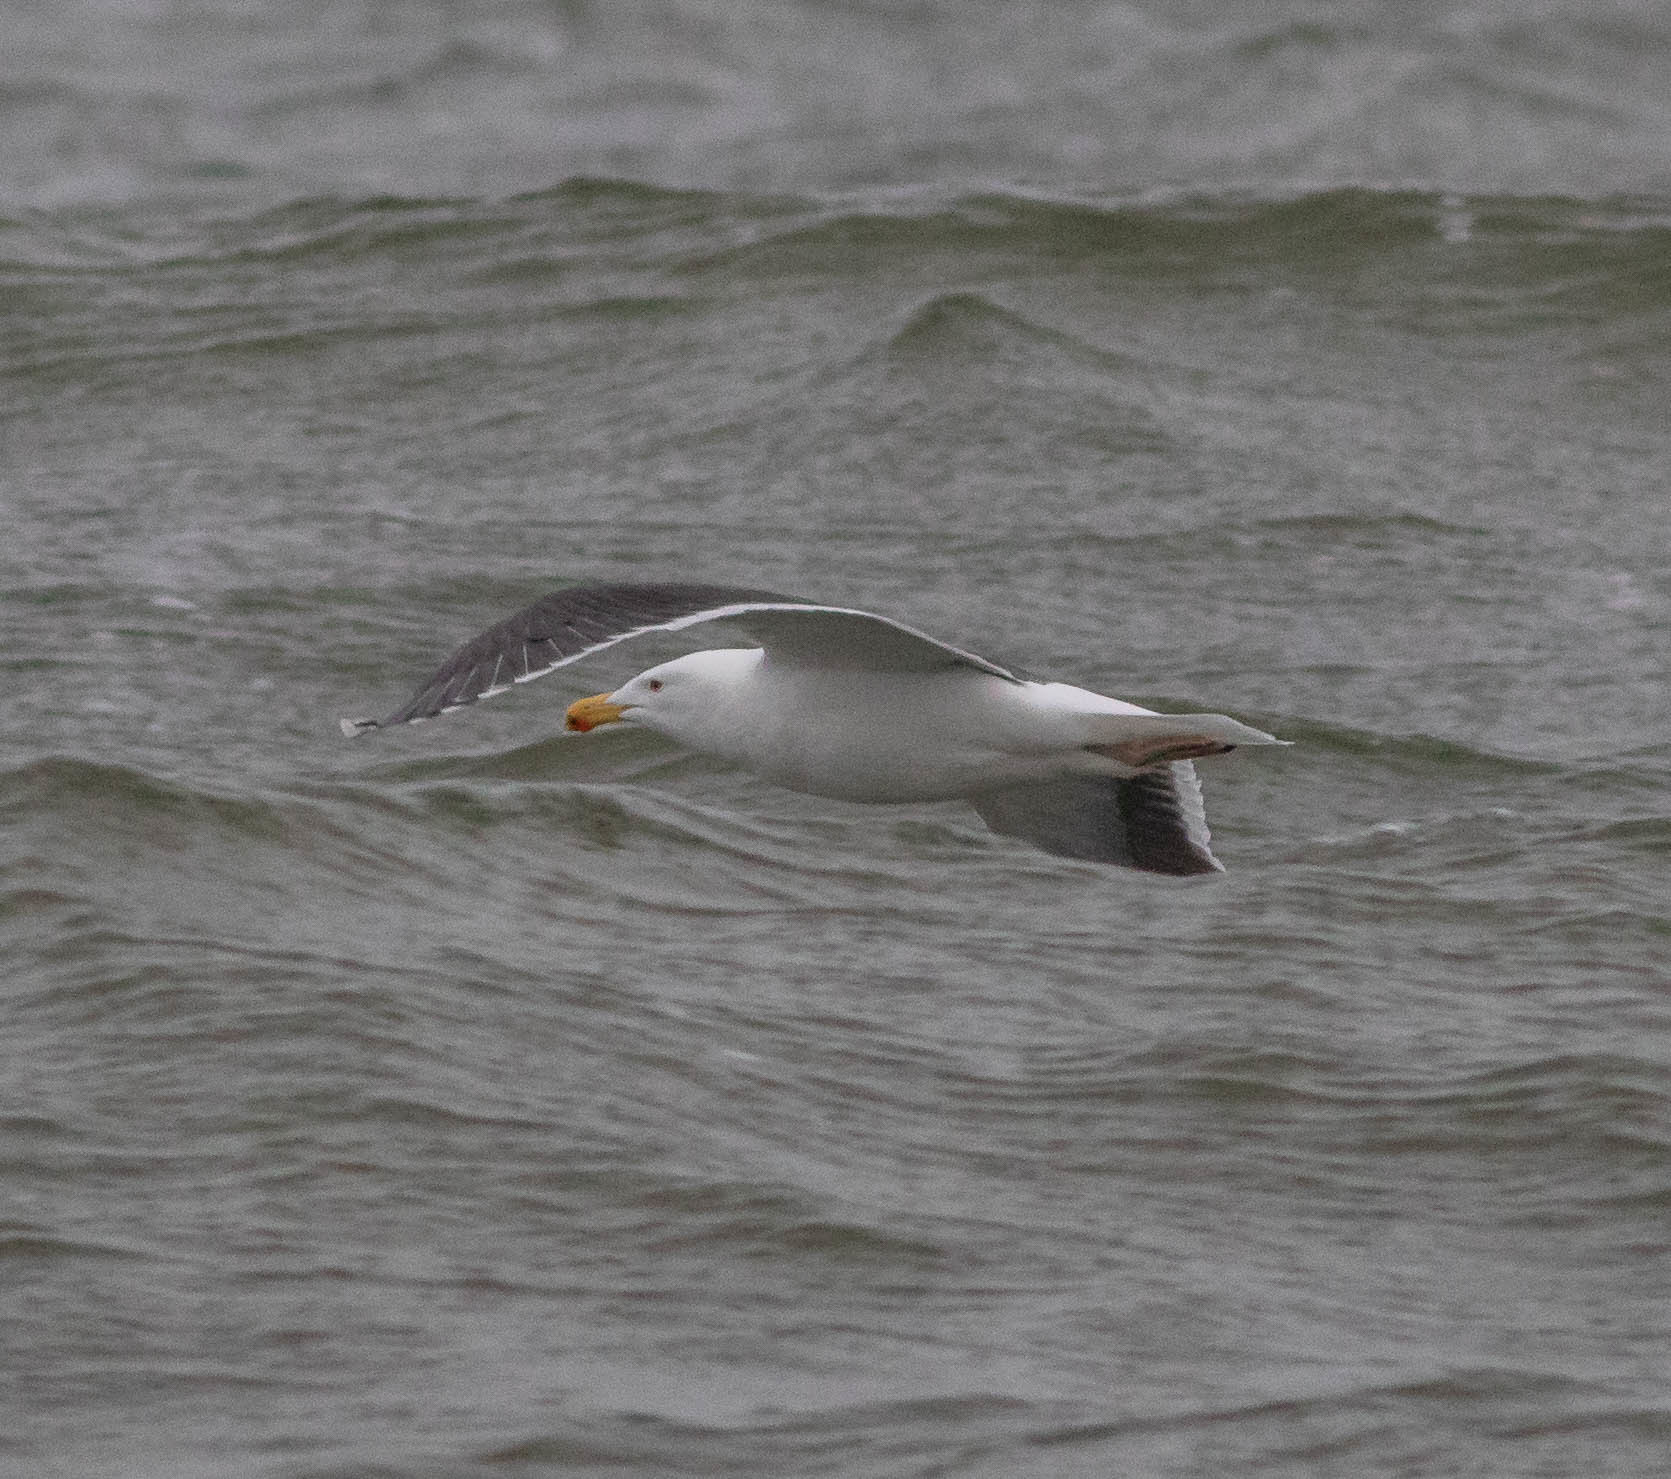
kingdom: Animalia
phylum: Chordata
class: Aves
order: Charadriiformes
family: Laridae
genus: Larus
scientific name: Larus marinus
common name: Great black-backed gull
